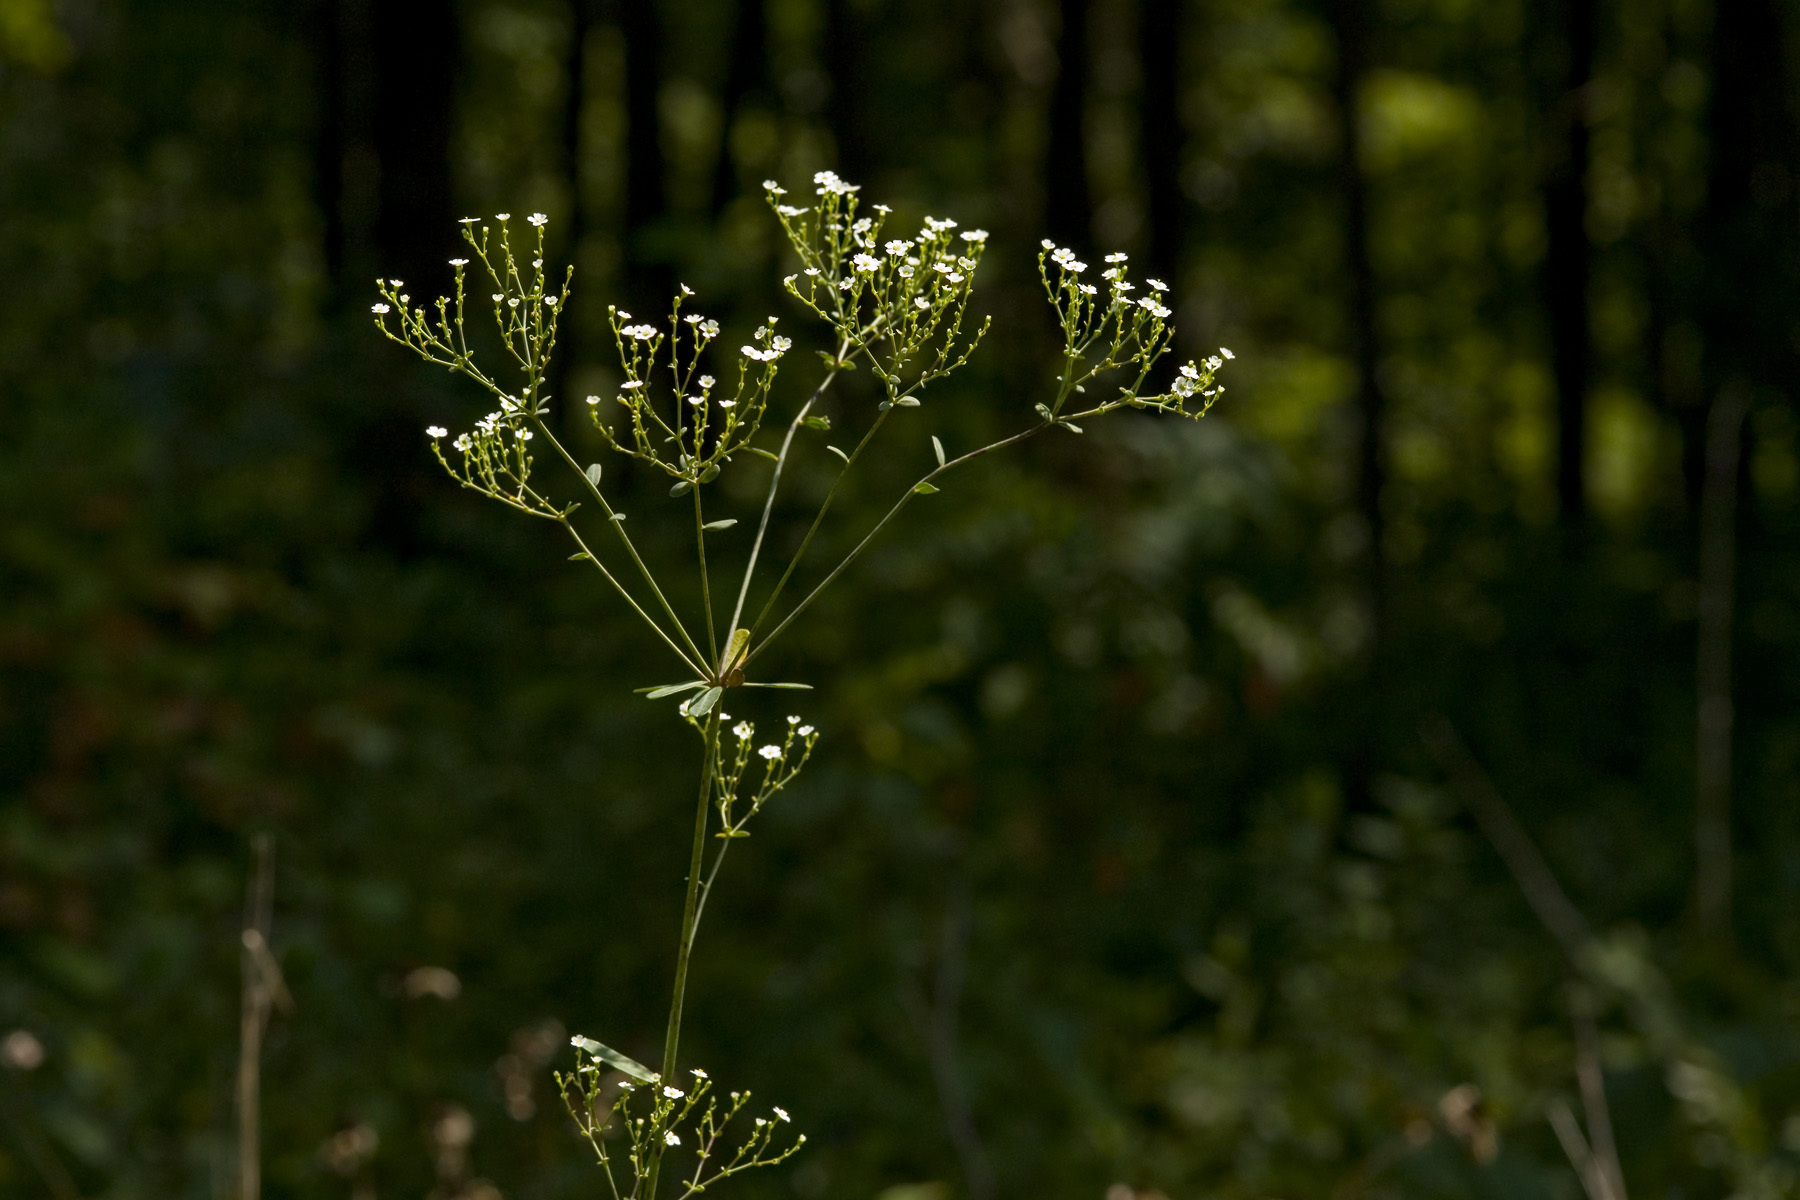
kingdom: Plantae
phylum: Tracheophyta
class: Magnoliopsida
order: Malpighiales
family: Euphorbiaceae
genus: Euphorbia
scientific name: Euphorbia corollata
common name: Flowering spurge
